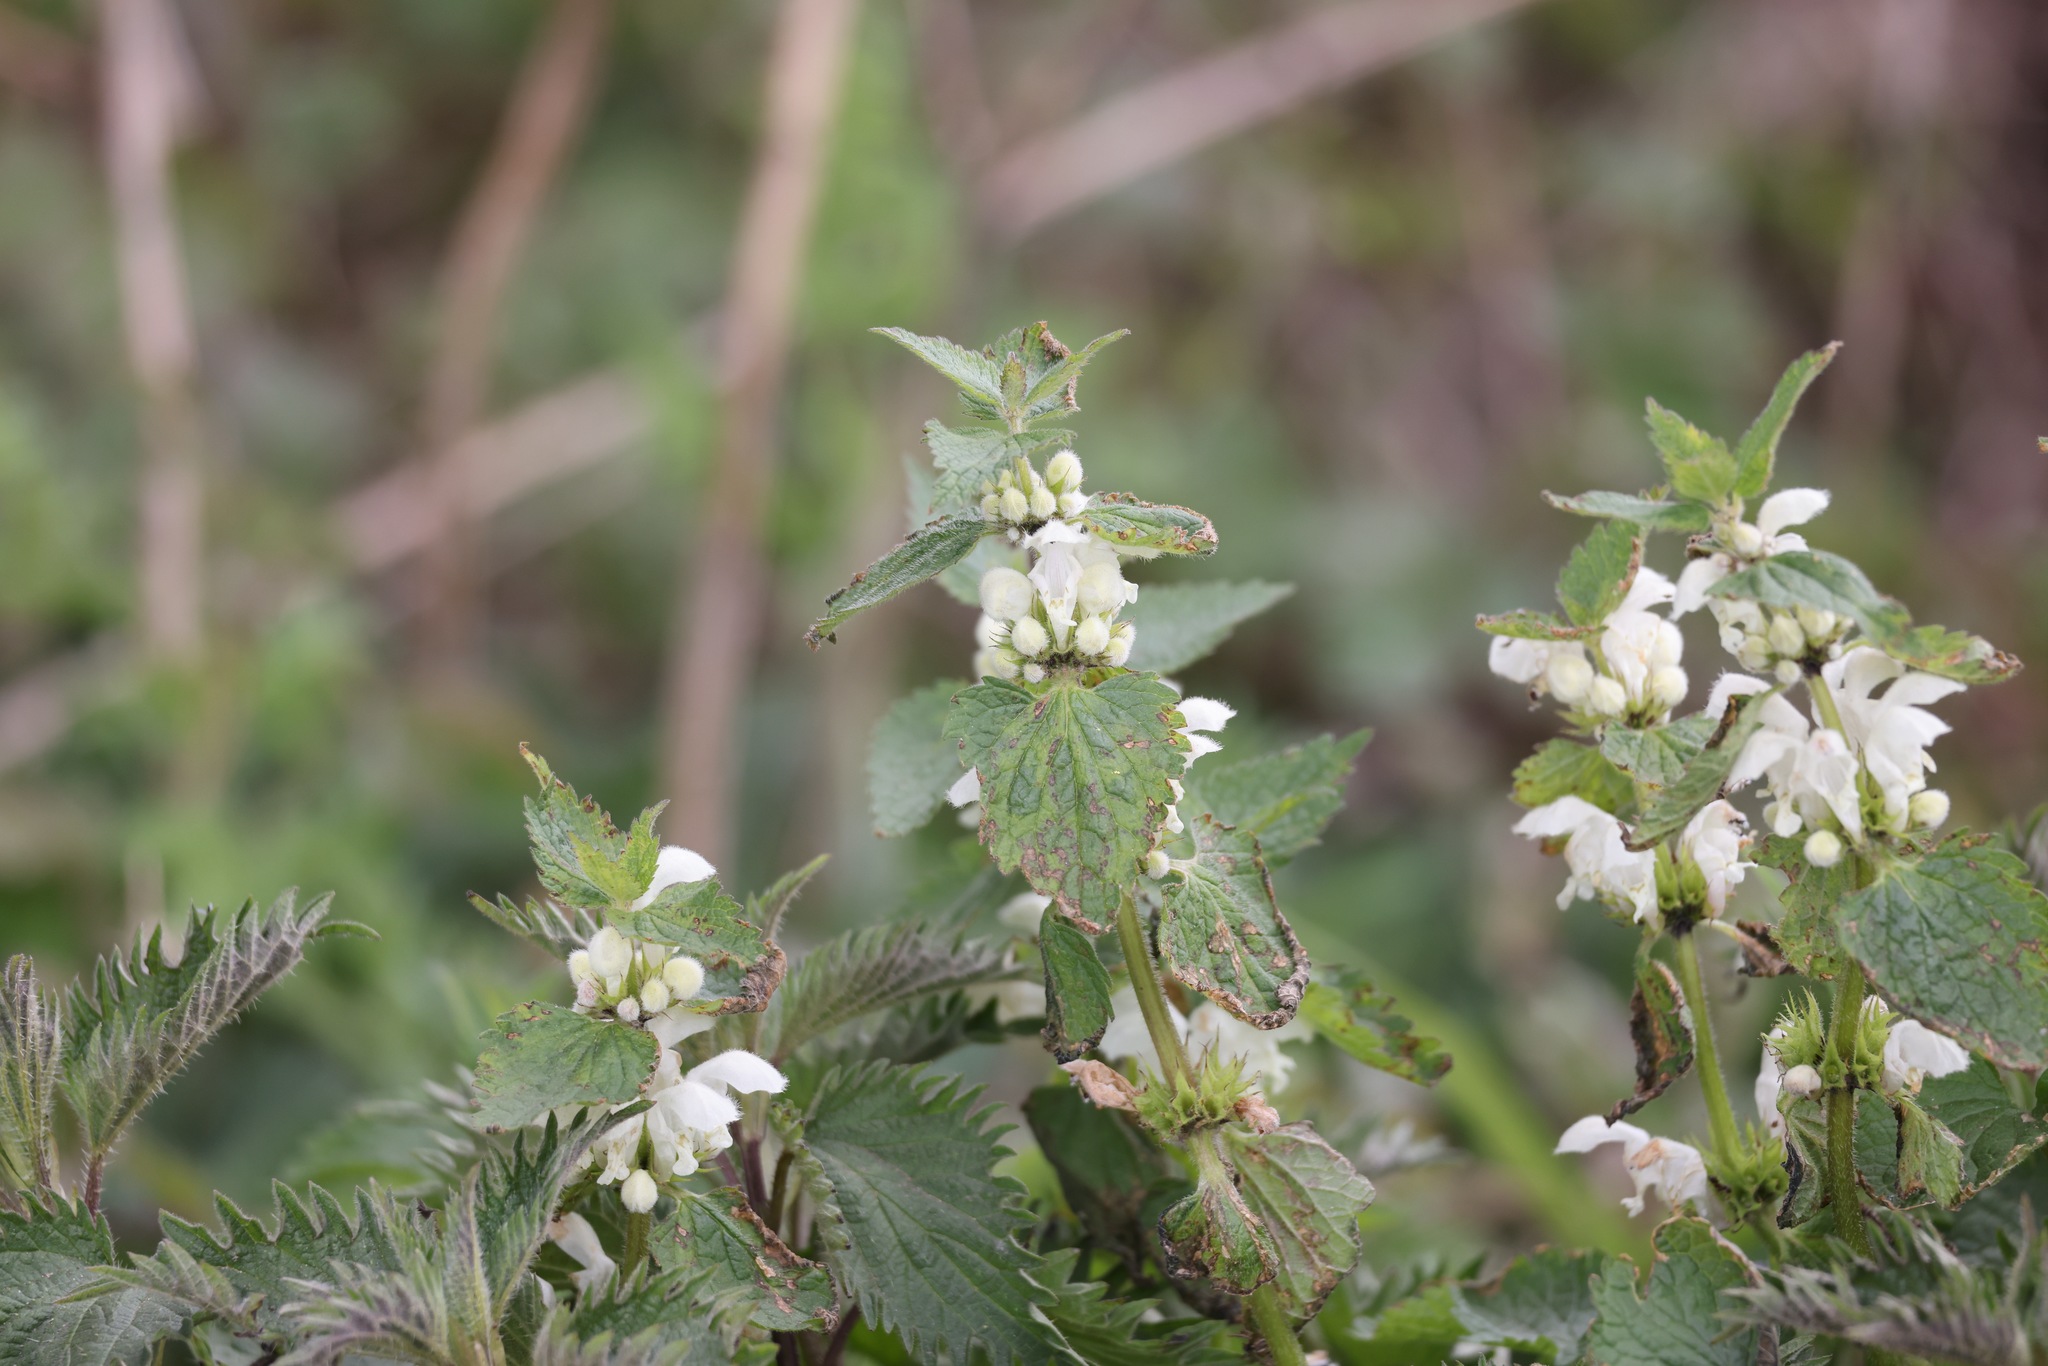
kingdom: Plantae
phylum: Tracheophyta
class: Magnoliopsida
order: Lamiales
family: Lamiaceae
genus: Lamium
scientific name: Lamium album
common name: White dead-nettle
